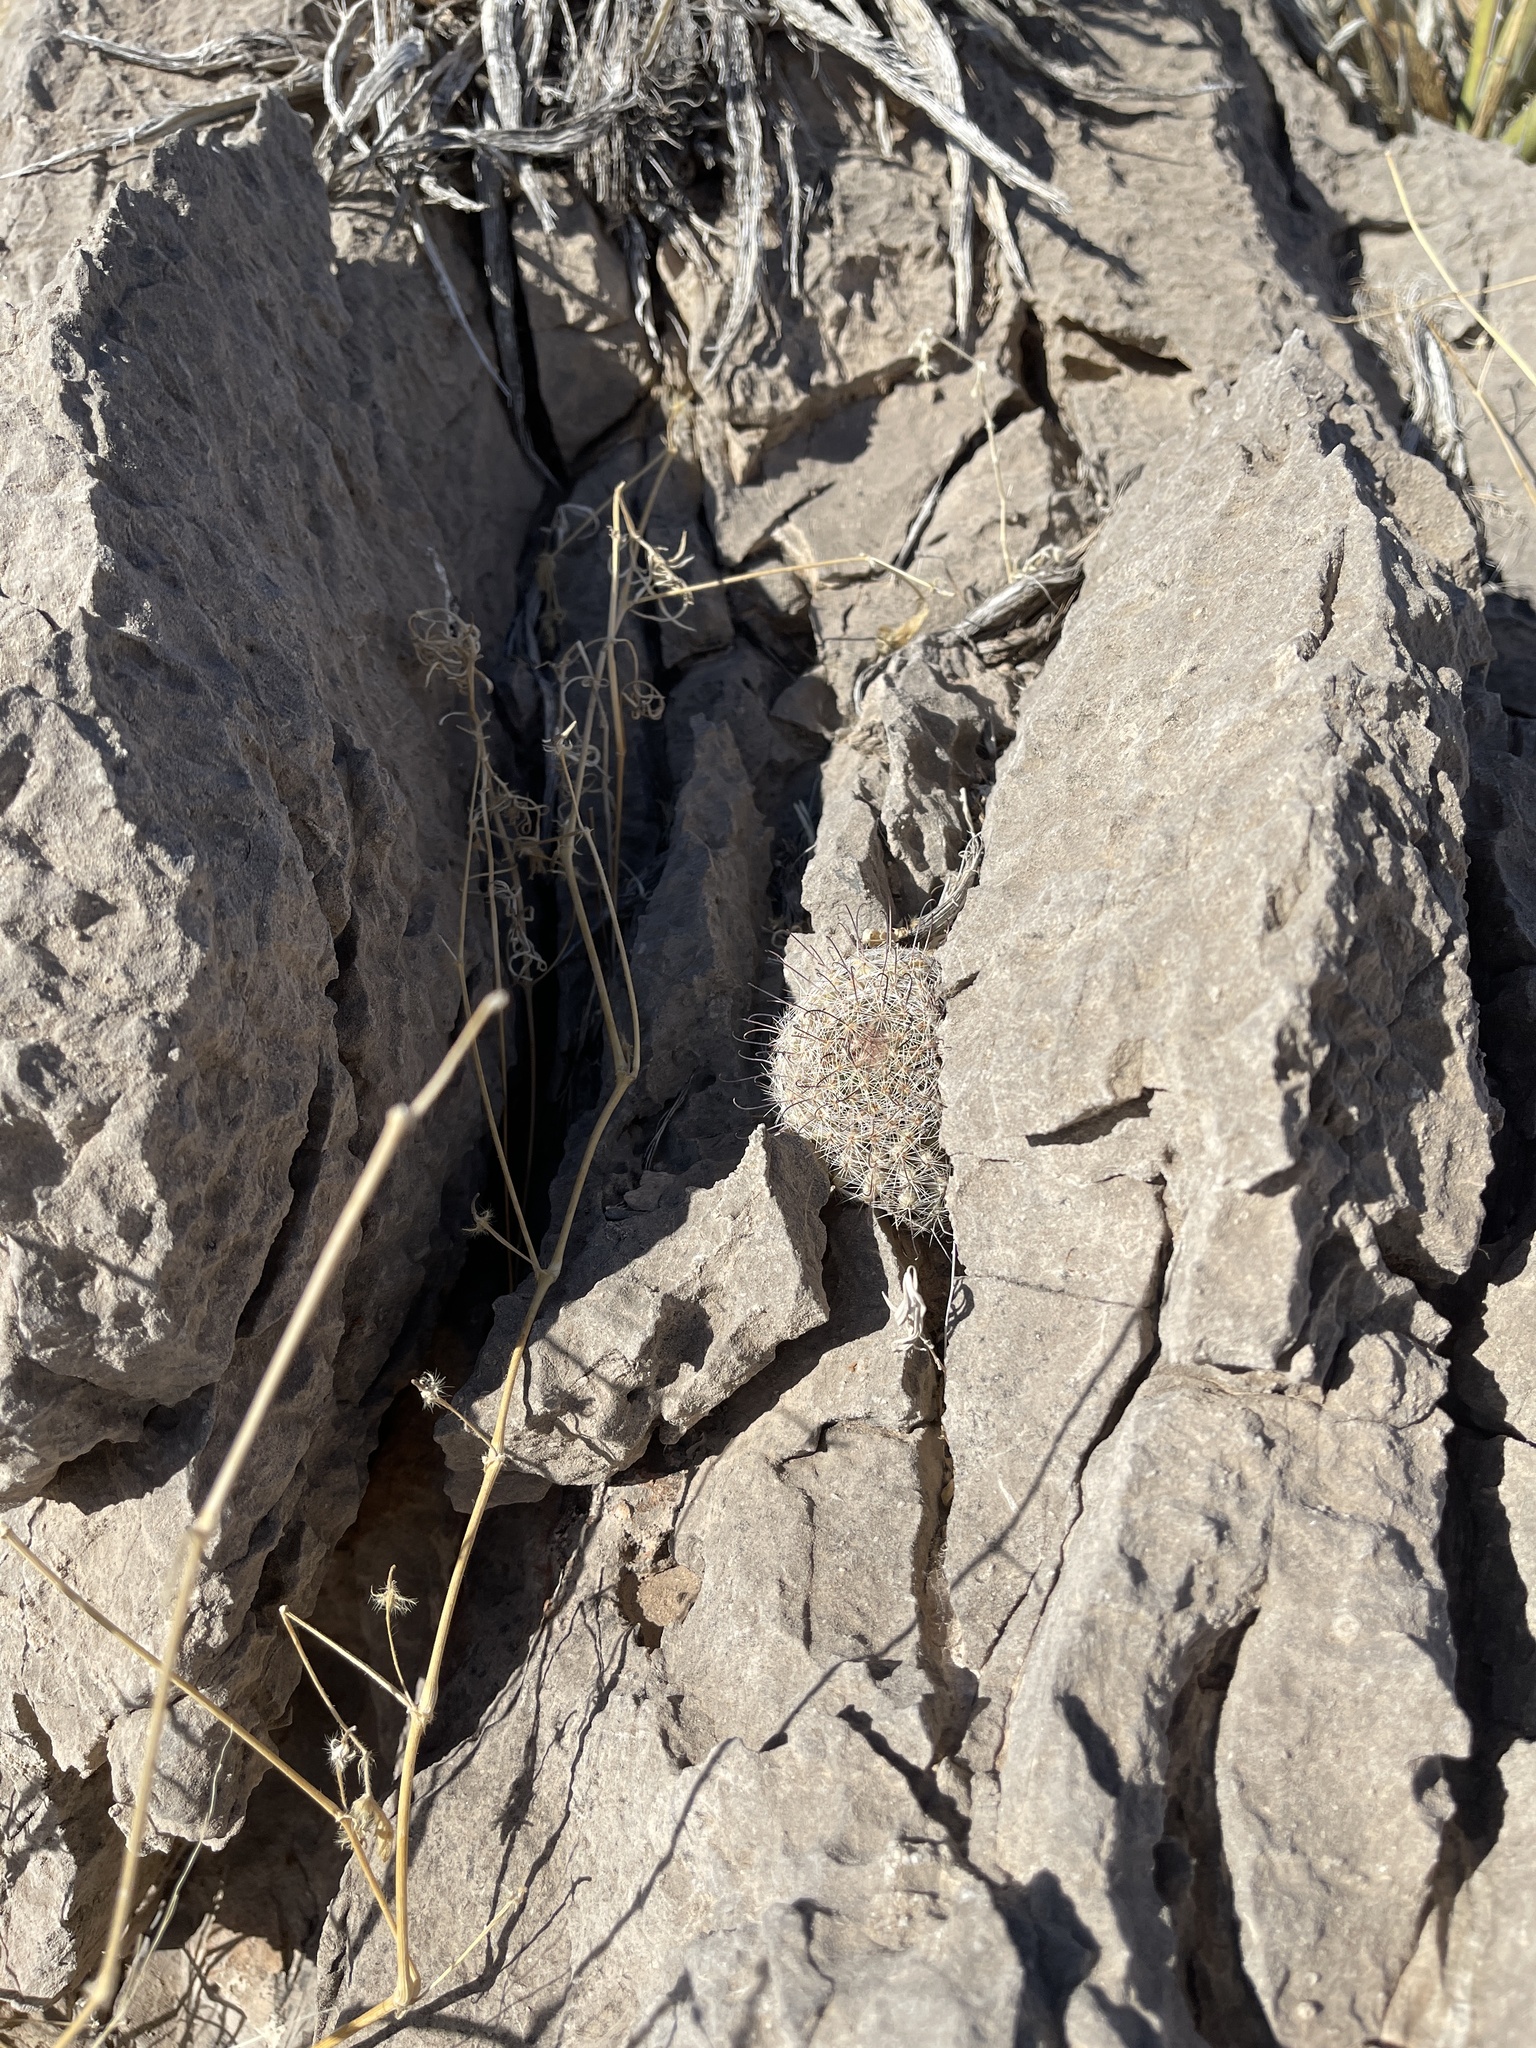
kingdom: Plantae
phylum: Tracheophyta
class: Magnoliopsida
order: Caryophyllales
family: Cactaceae
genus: Cochemiea
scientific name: Cochemiea grahamii
